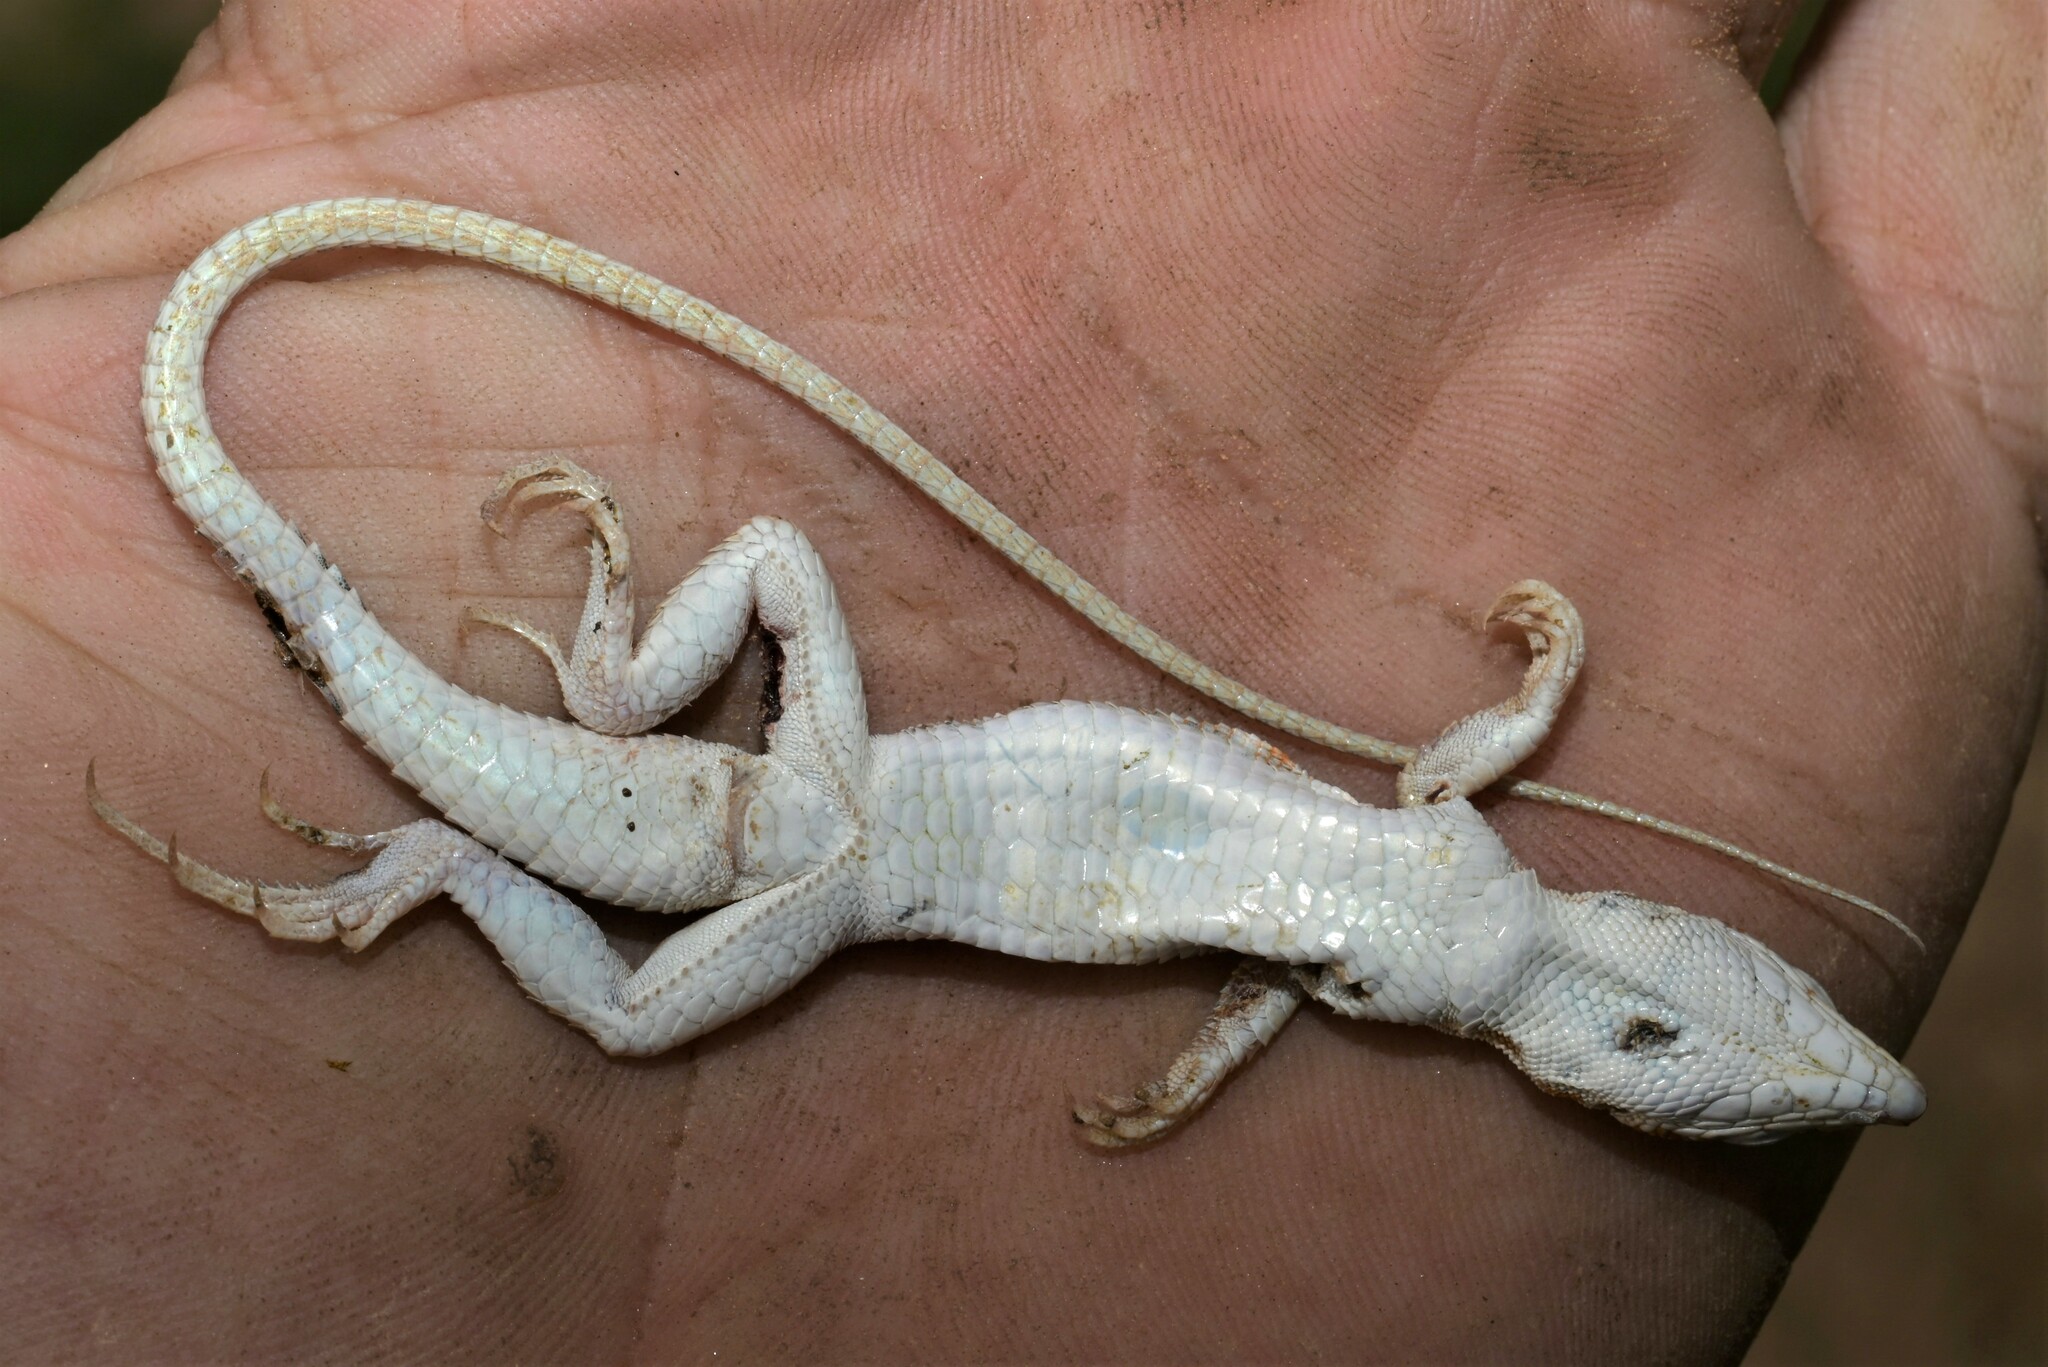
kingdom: Animalia
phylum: Chordata
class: Squamata
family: Lacertidae
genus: Acanthodactylus
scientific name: Acanthodactylus opheodurus
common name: Arnold's fringe-fingered lizard
